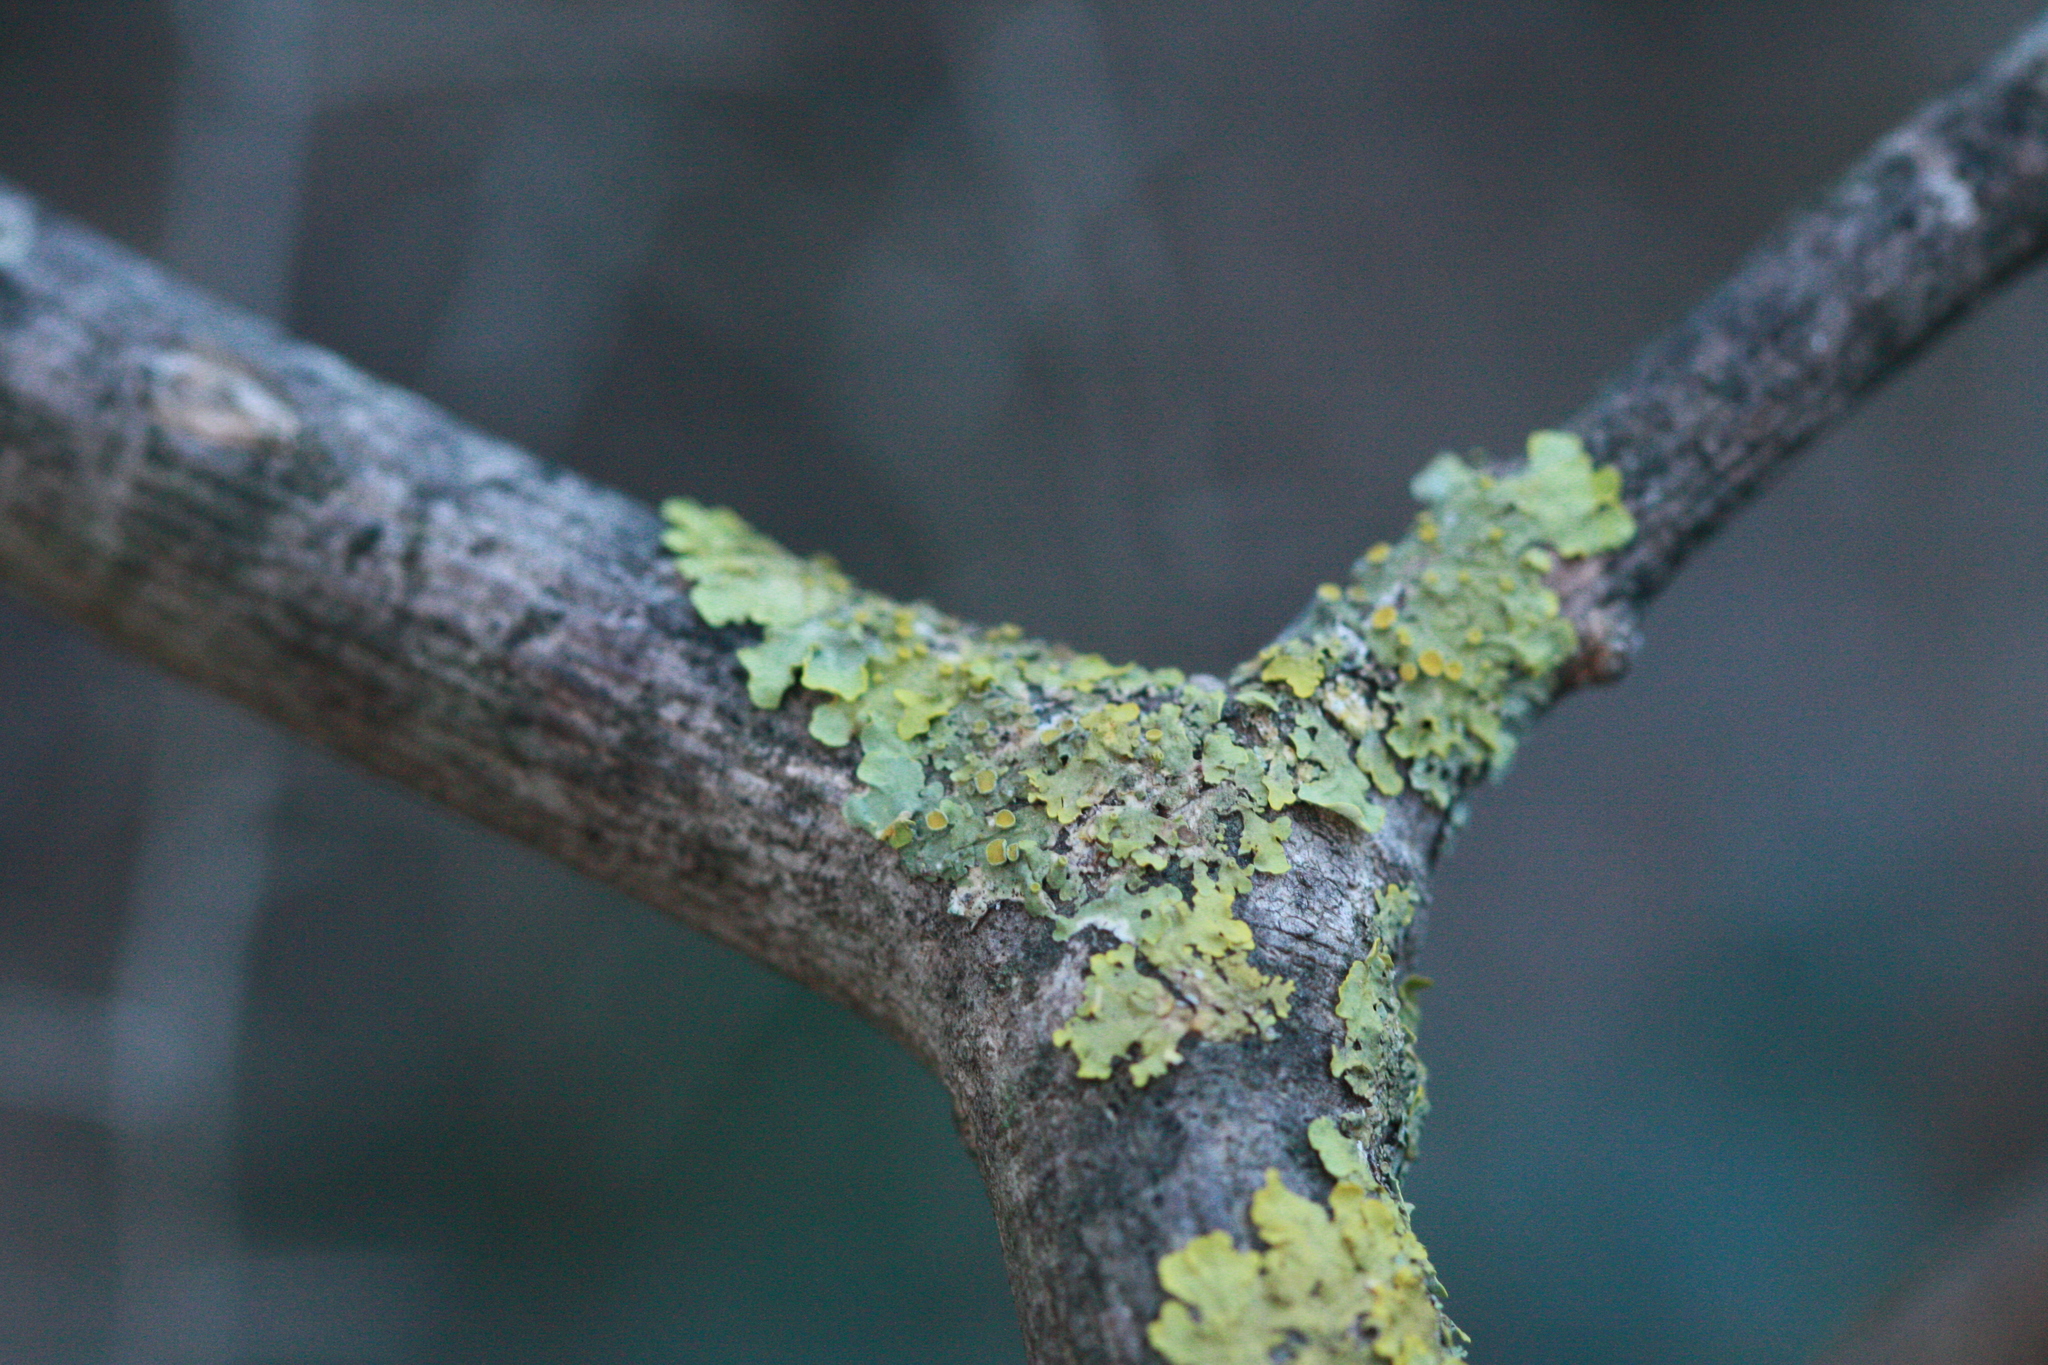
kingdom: Fungi
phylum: Ascomycota
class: Lecanoromycetes
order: Teloschistales
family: Teloschistaceae
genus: Xanthoria
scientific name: Xanthoria parietina
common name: Common orange lichen
